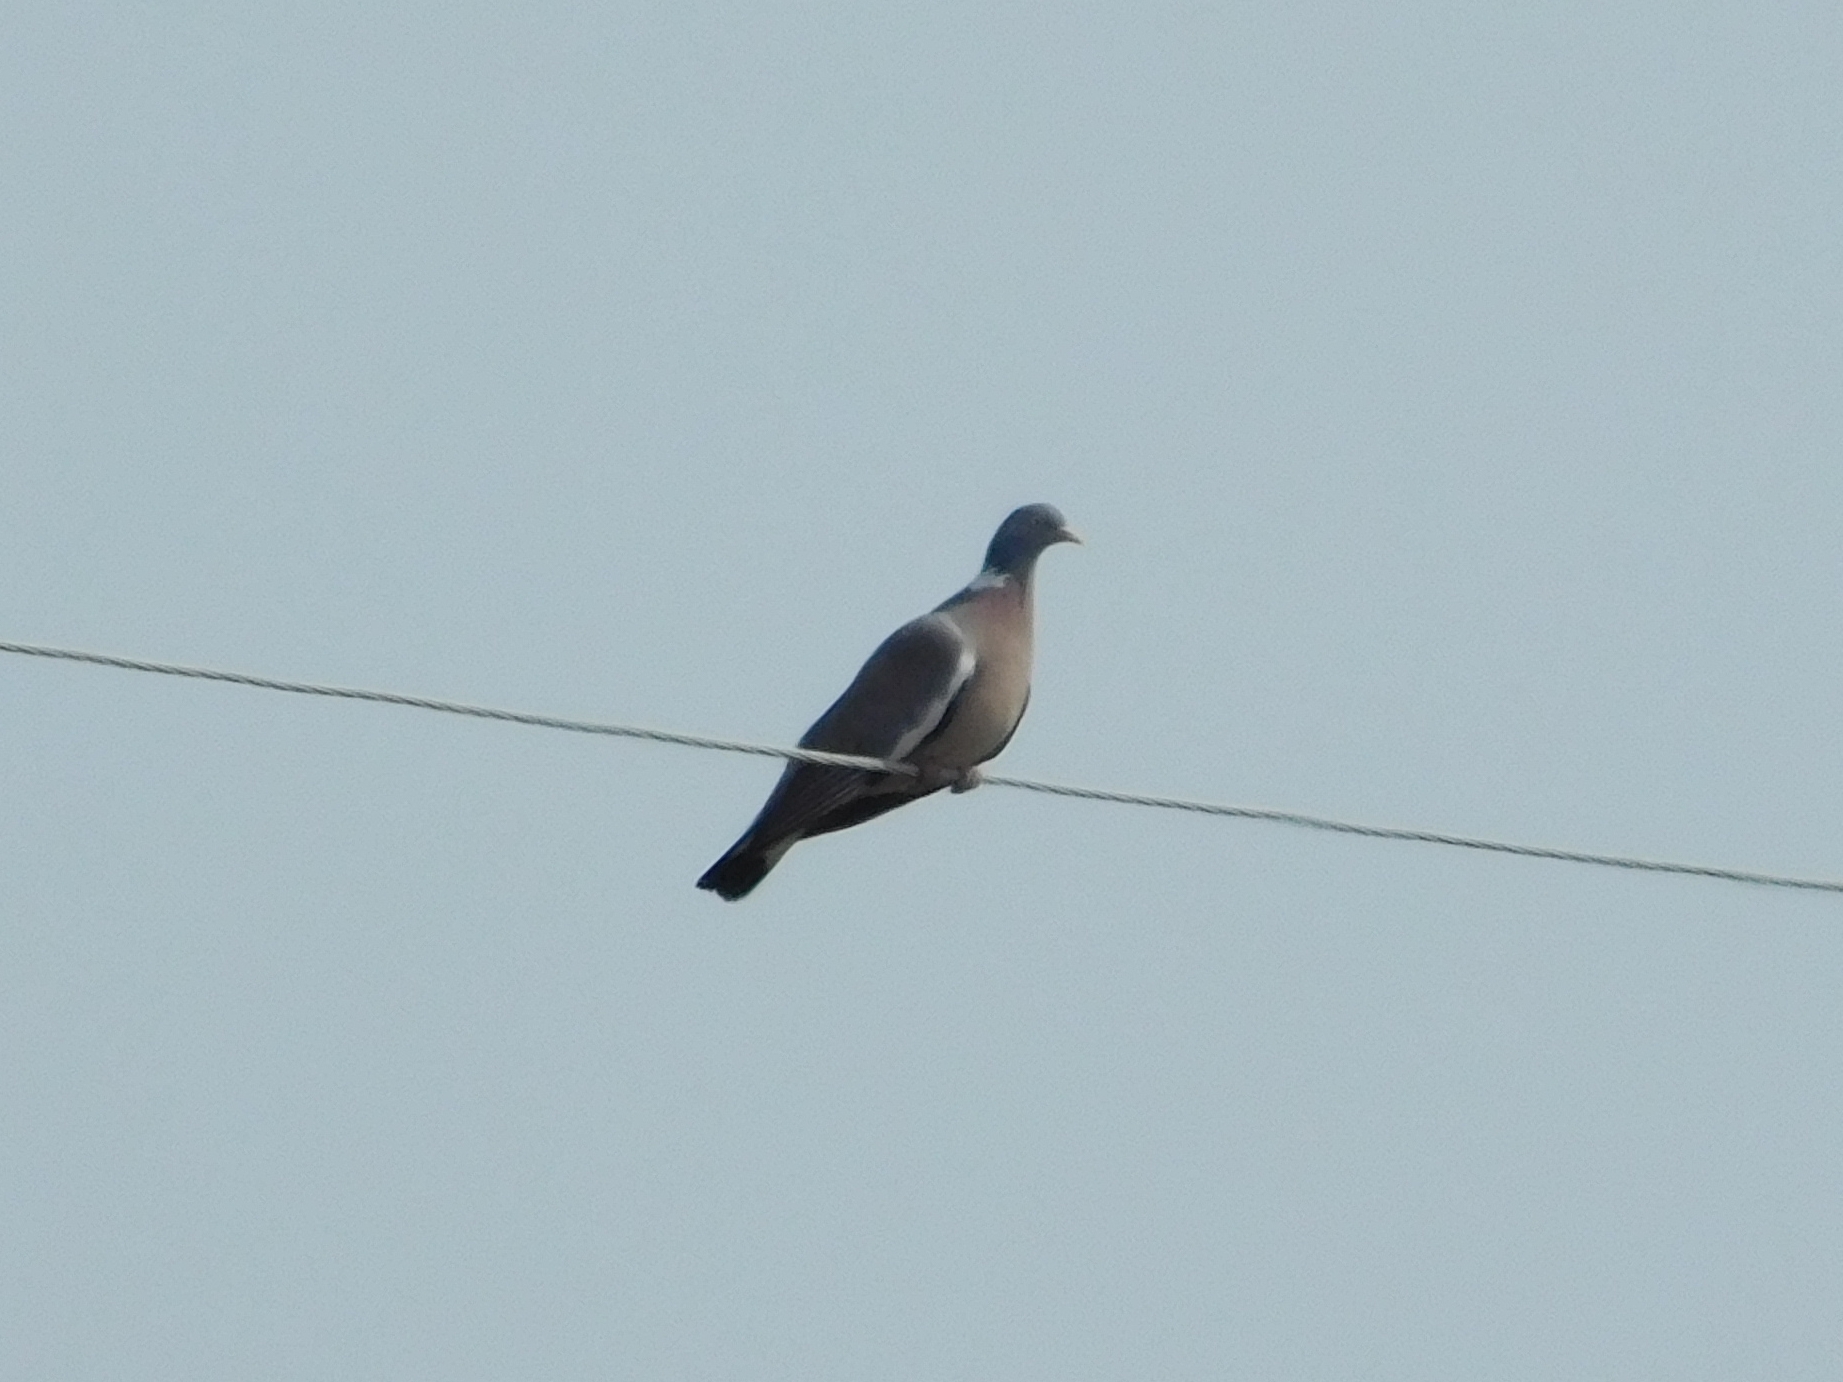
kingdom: Animalia
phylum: Chordata
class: Aves
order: Columbiformes
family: Columbidae
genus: Columba
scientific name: Columba palumbus
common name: Common wood pigeon
